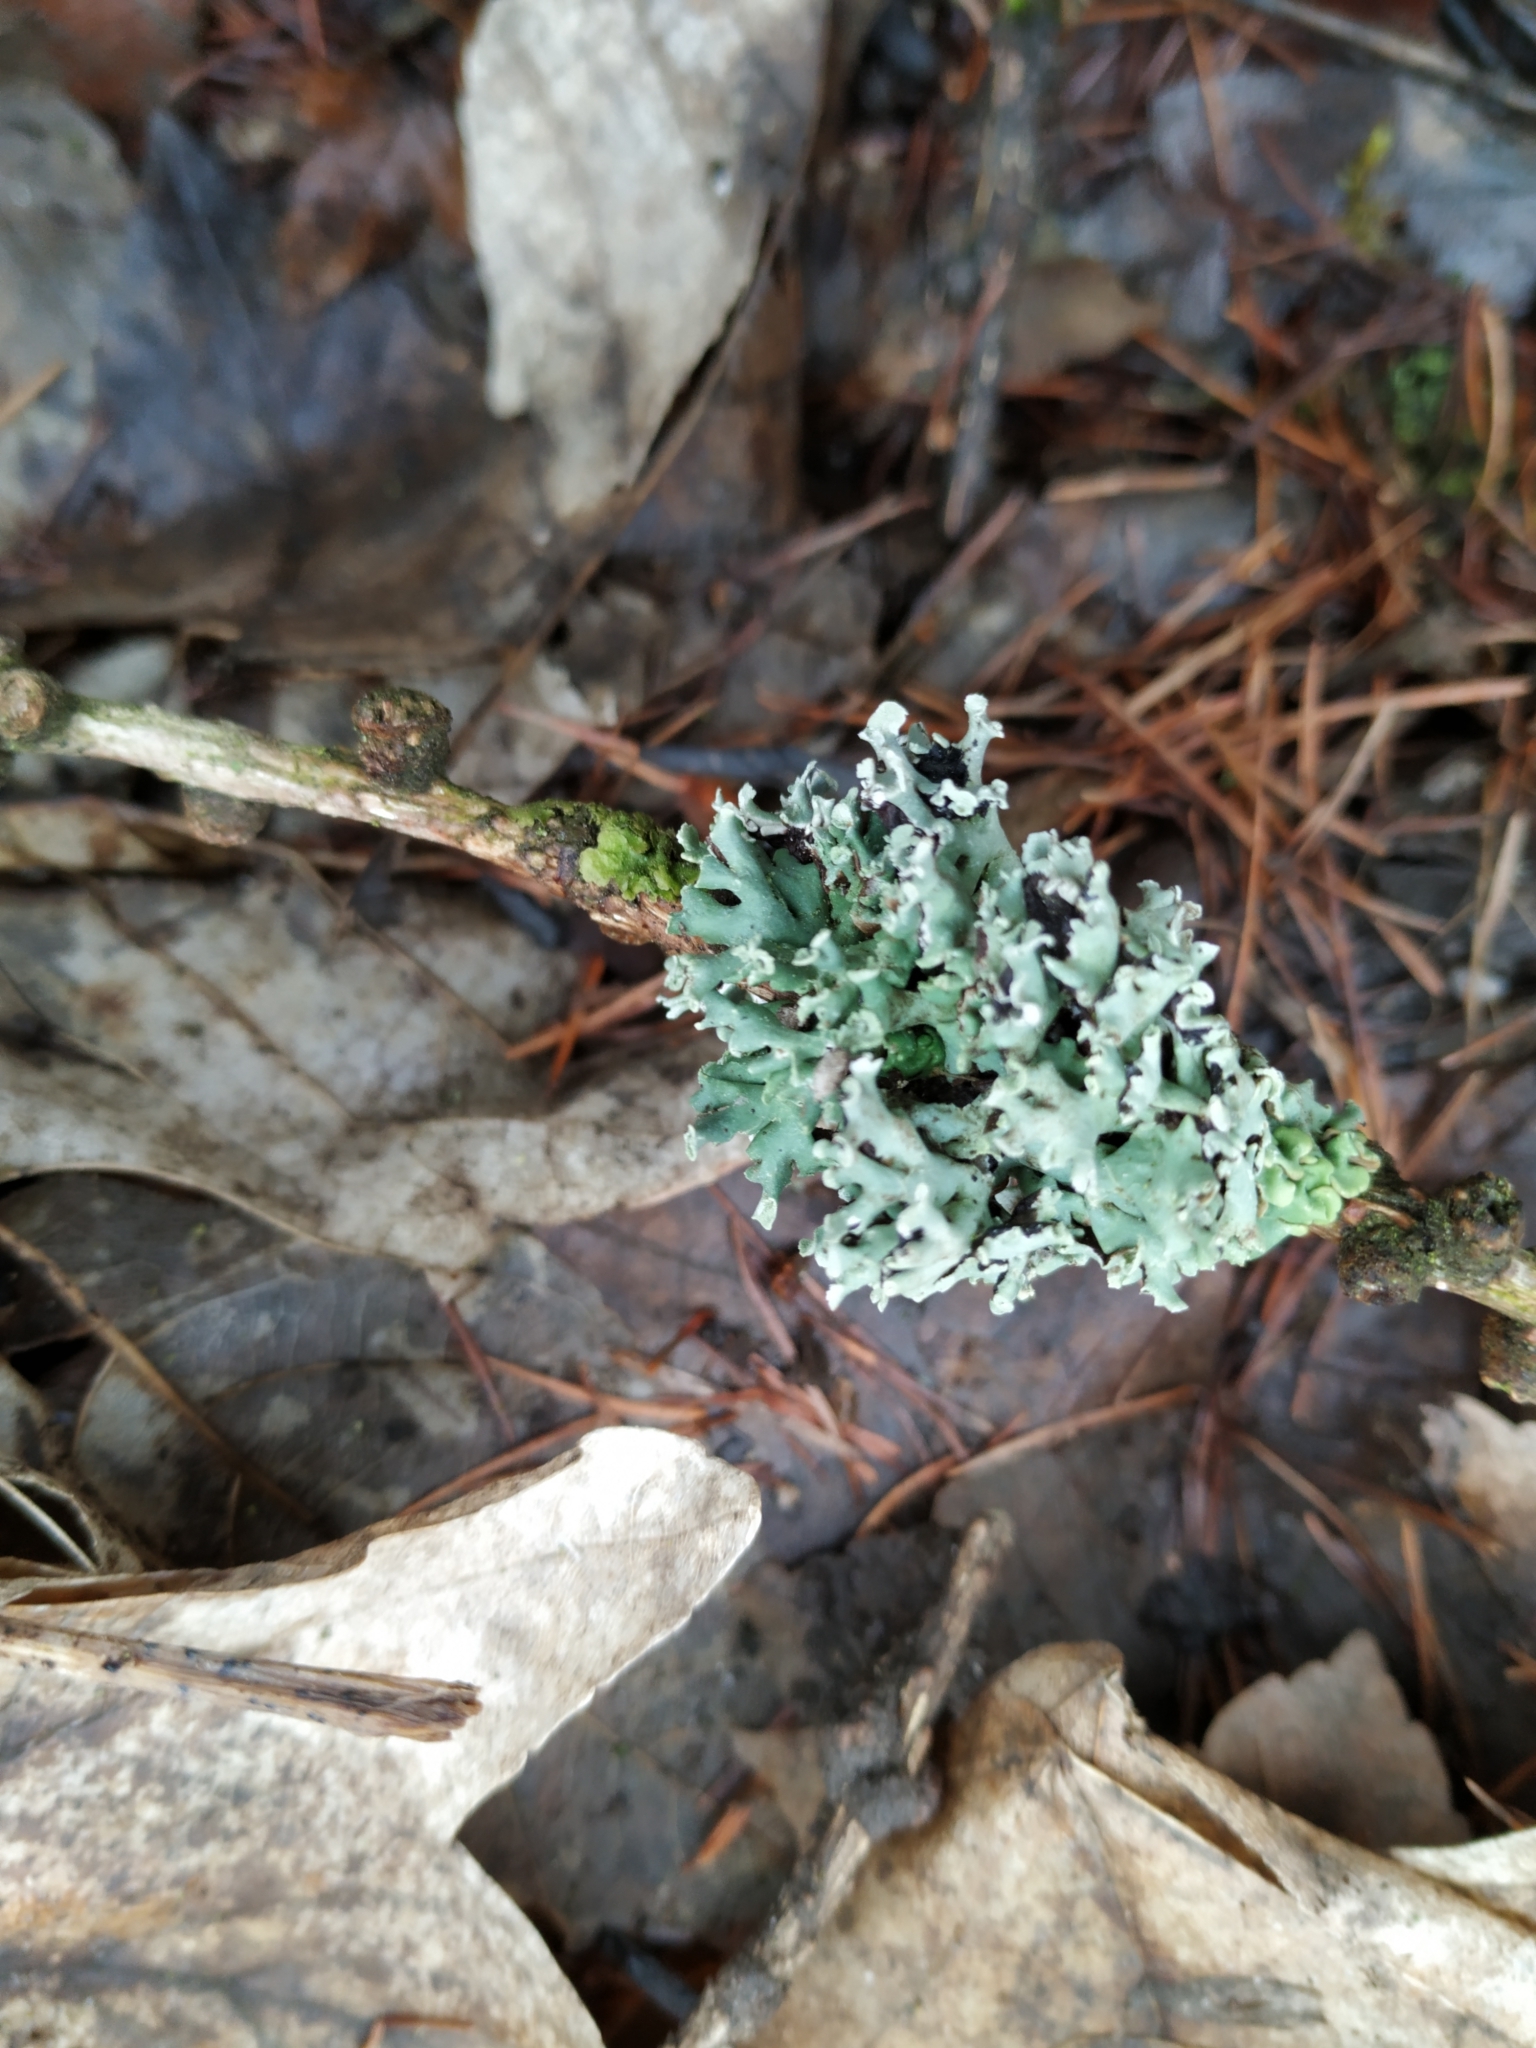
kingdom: Fungi
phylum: Ascomycota
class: Lecanoromycetes
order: Lecanorales
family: Parmeliaceae
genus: Hypogymnia
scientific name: Hypogymnia physodes
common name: Dark crottle
